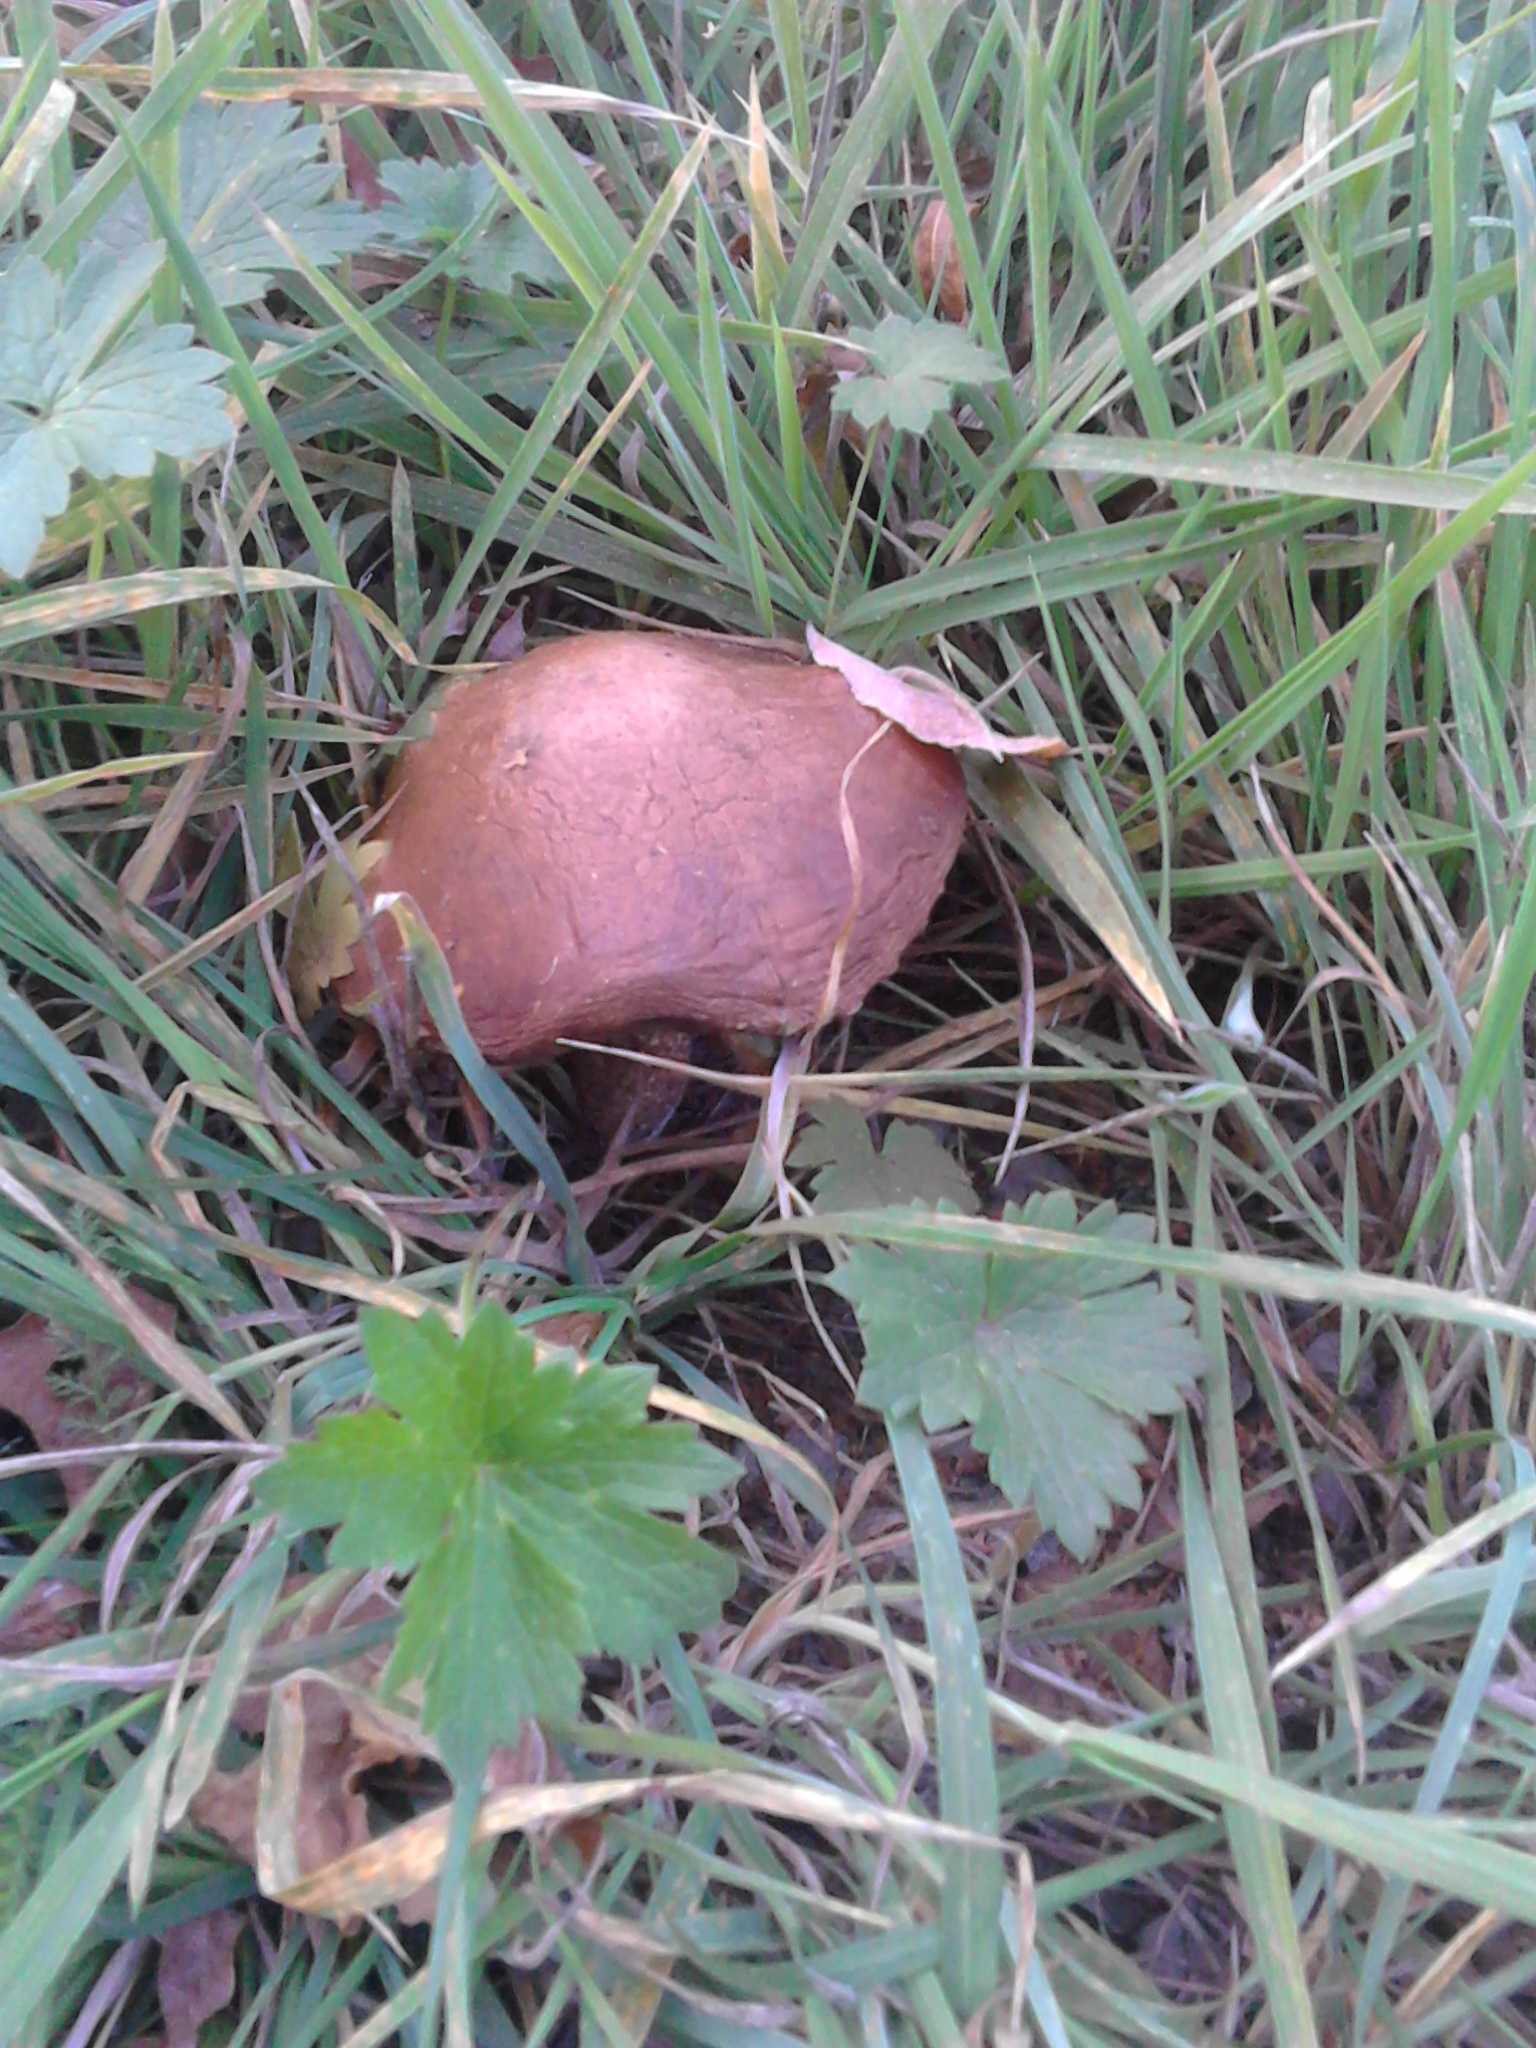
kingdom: Fungi
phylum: Basidiomycota
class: Agaricomycetes
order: Boletales
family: Boletaceae
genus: Leccinum
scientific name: Leccinum scabrum
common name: Blushing bolete
